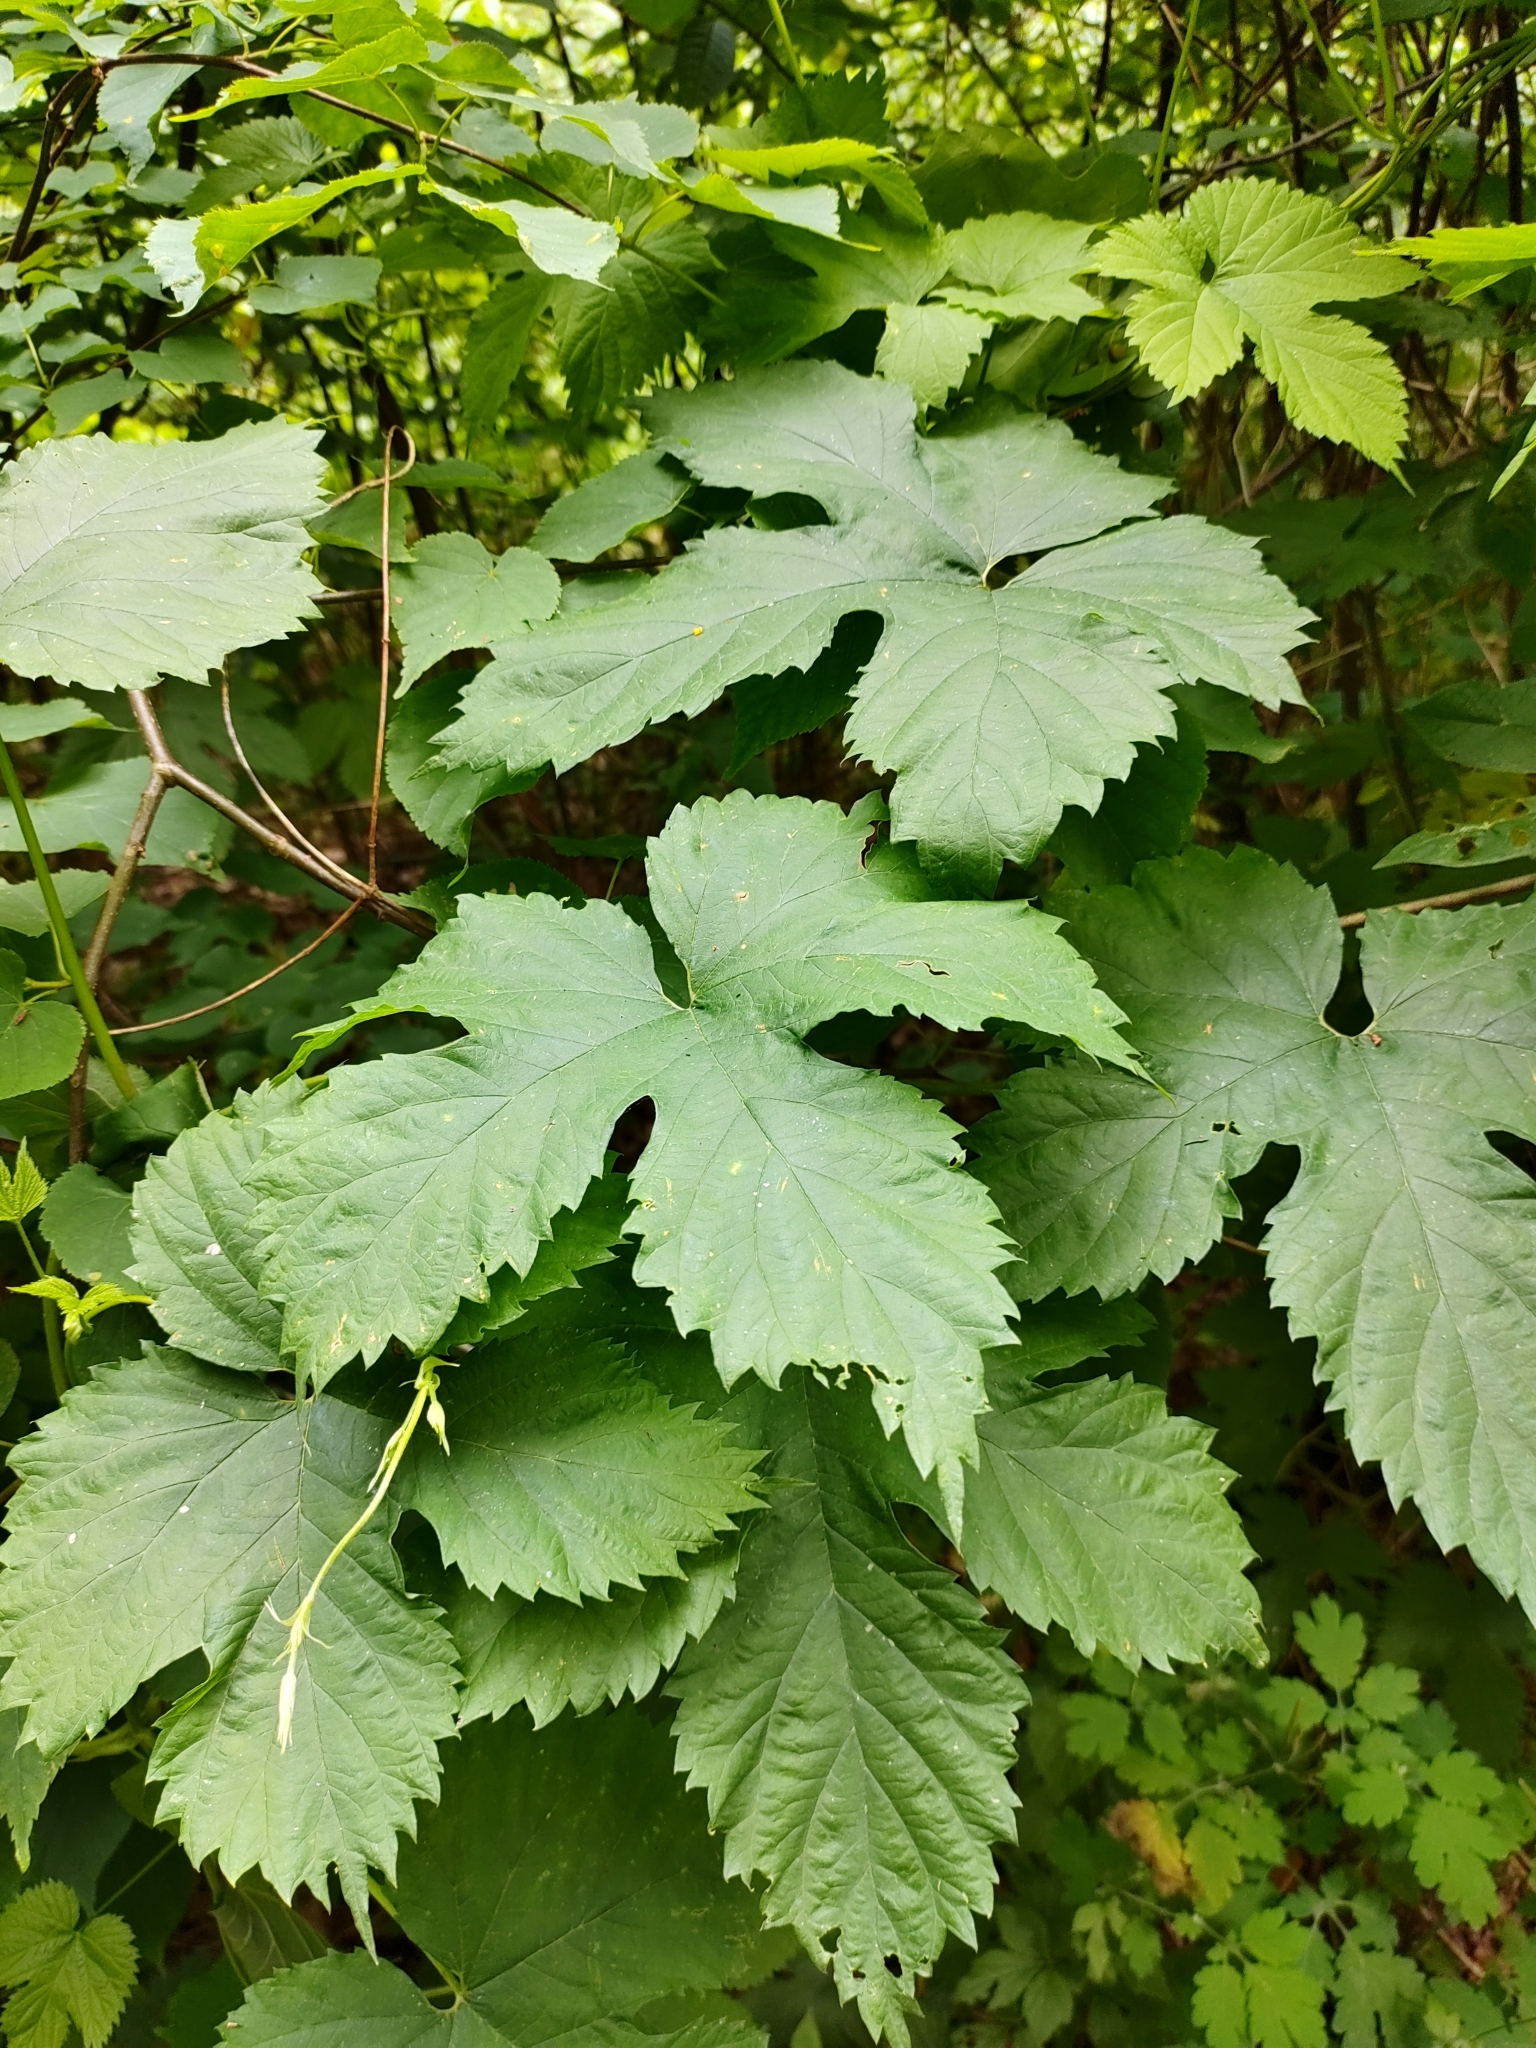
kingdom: Plantae
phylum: Tracheophyta
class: Magnoliopsida
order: Rosales
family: Cannabaceae
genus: Humulus
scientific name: Humulus lupulus
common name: Hop
